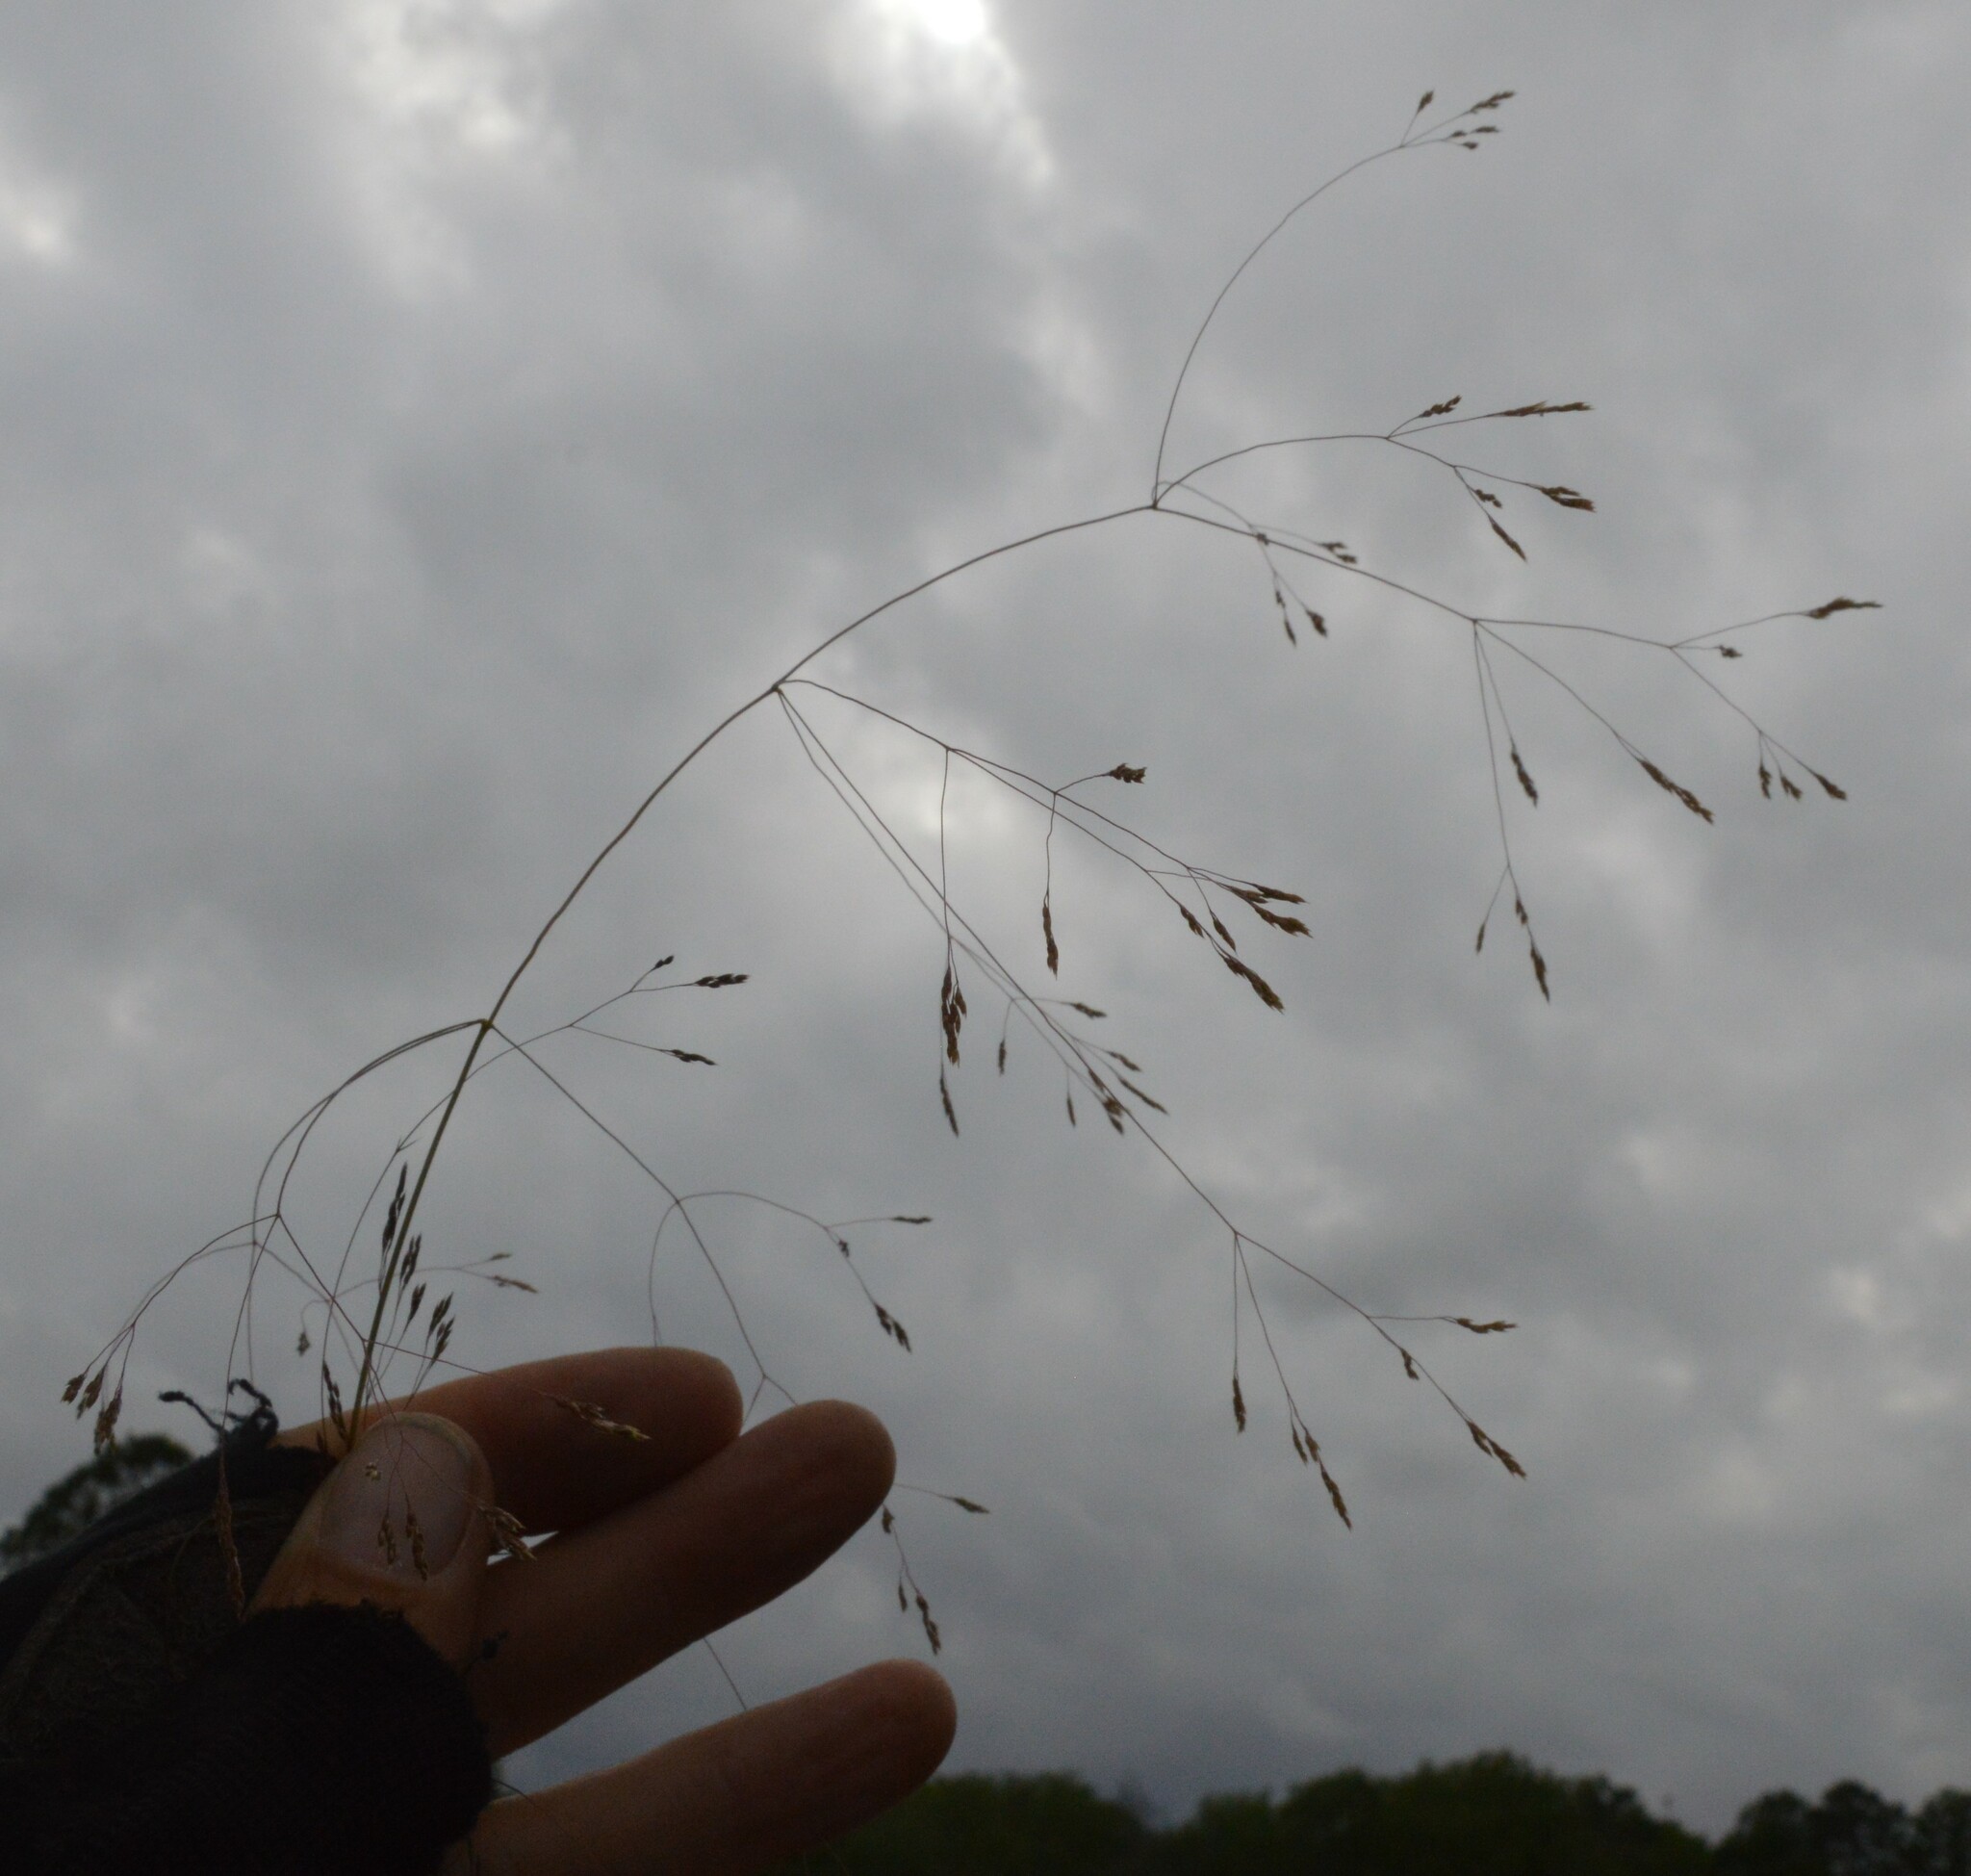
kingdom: Plantae
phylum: Tracheophyta
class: Liliopsida
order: Poales
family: Poaceae
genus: Agrostis
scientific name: Agrostis hyemalis
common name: Small bent
